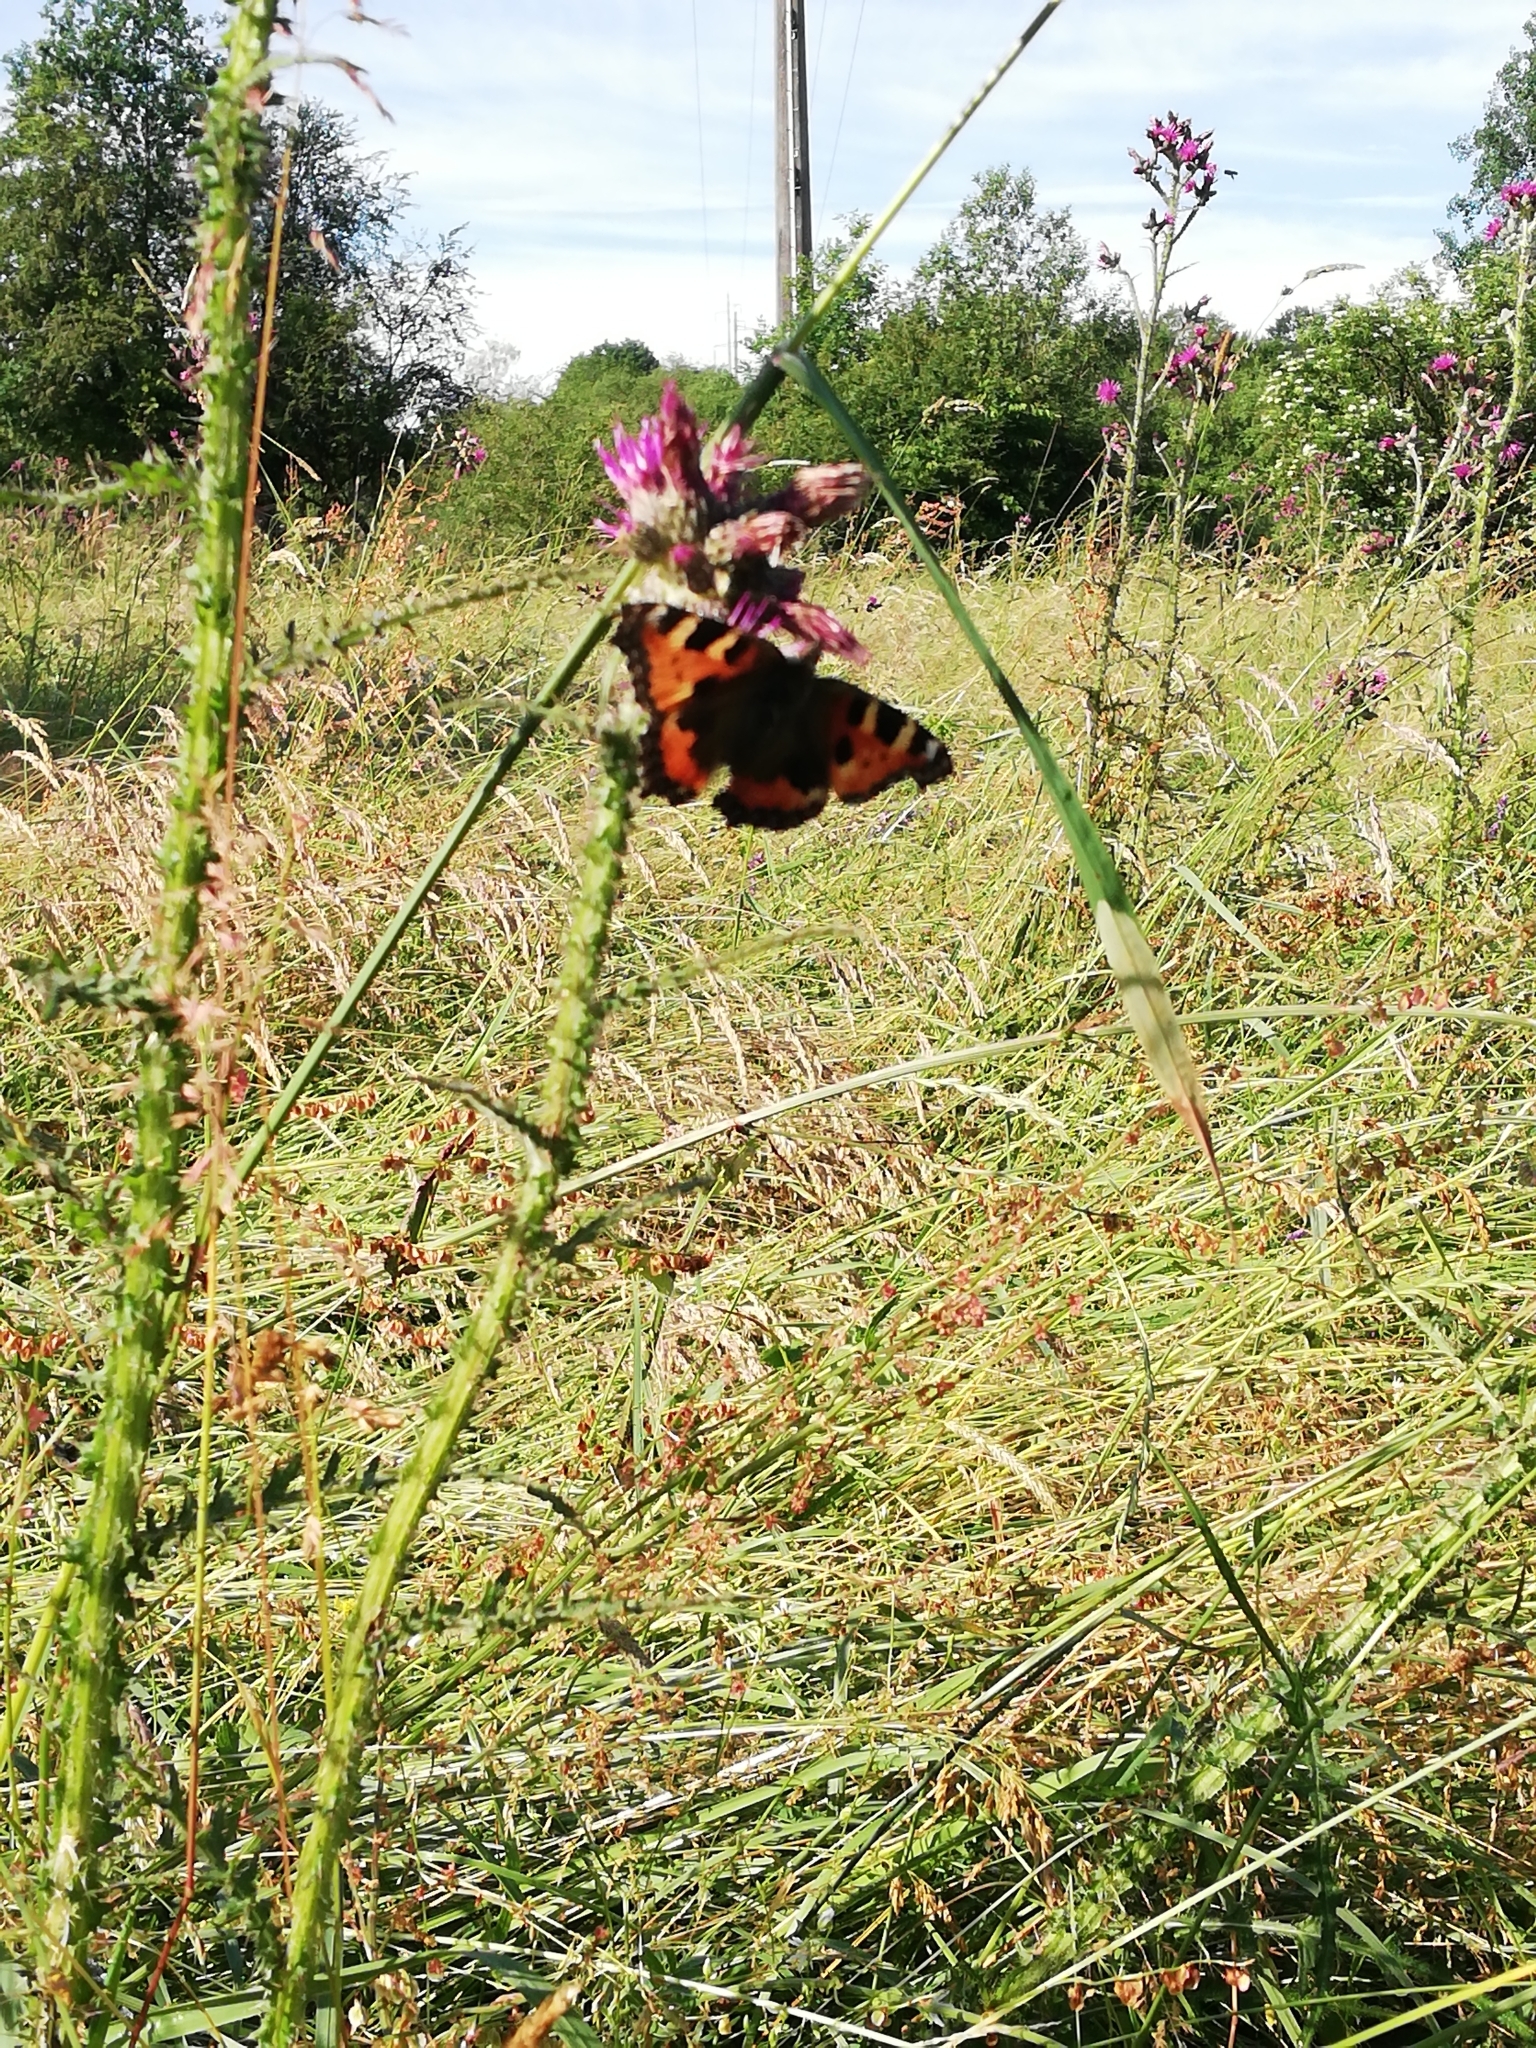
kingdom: Animalia
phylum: Arthropoda
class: Insecta
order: Lepidoptera
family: Nymphalidae
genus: Aglais
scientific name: Aglais urticae
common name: Small tortoiseshell
